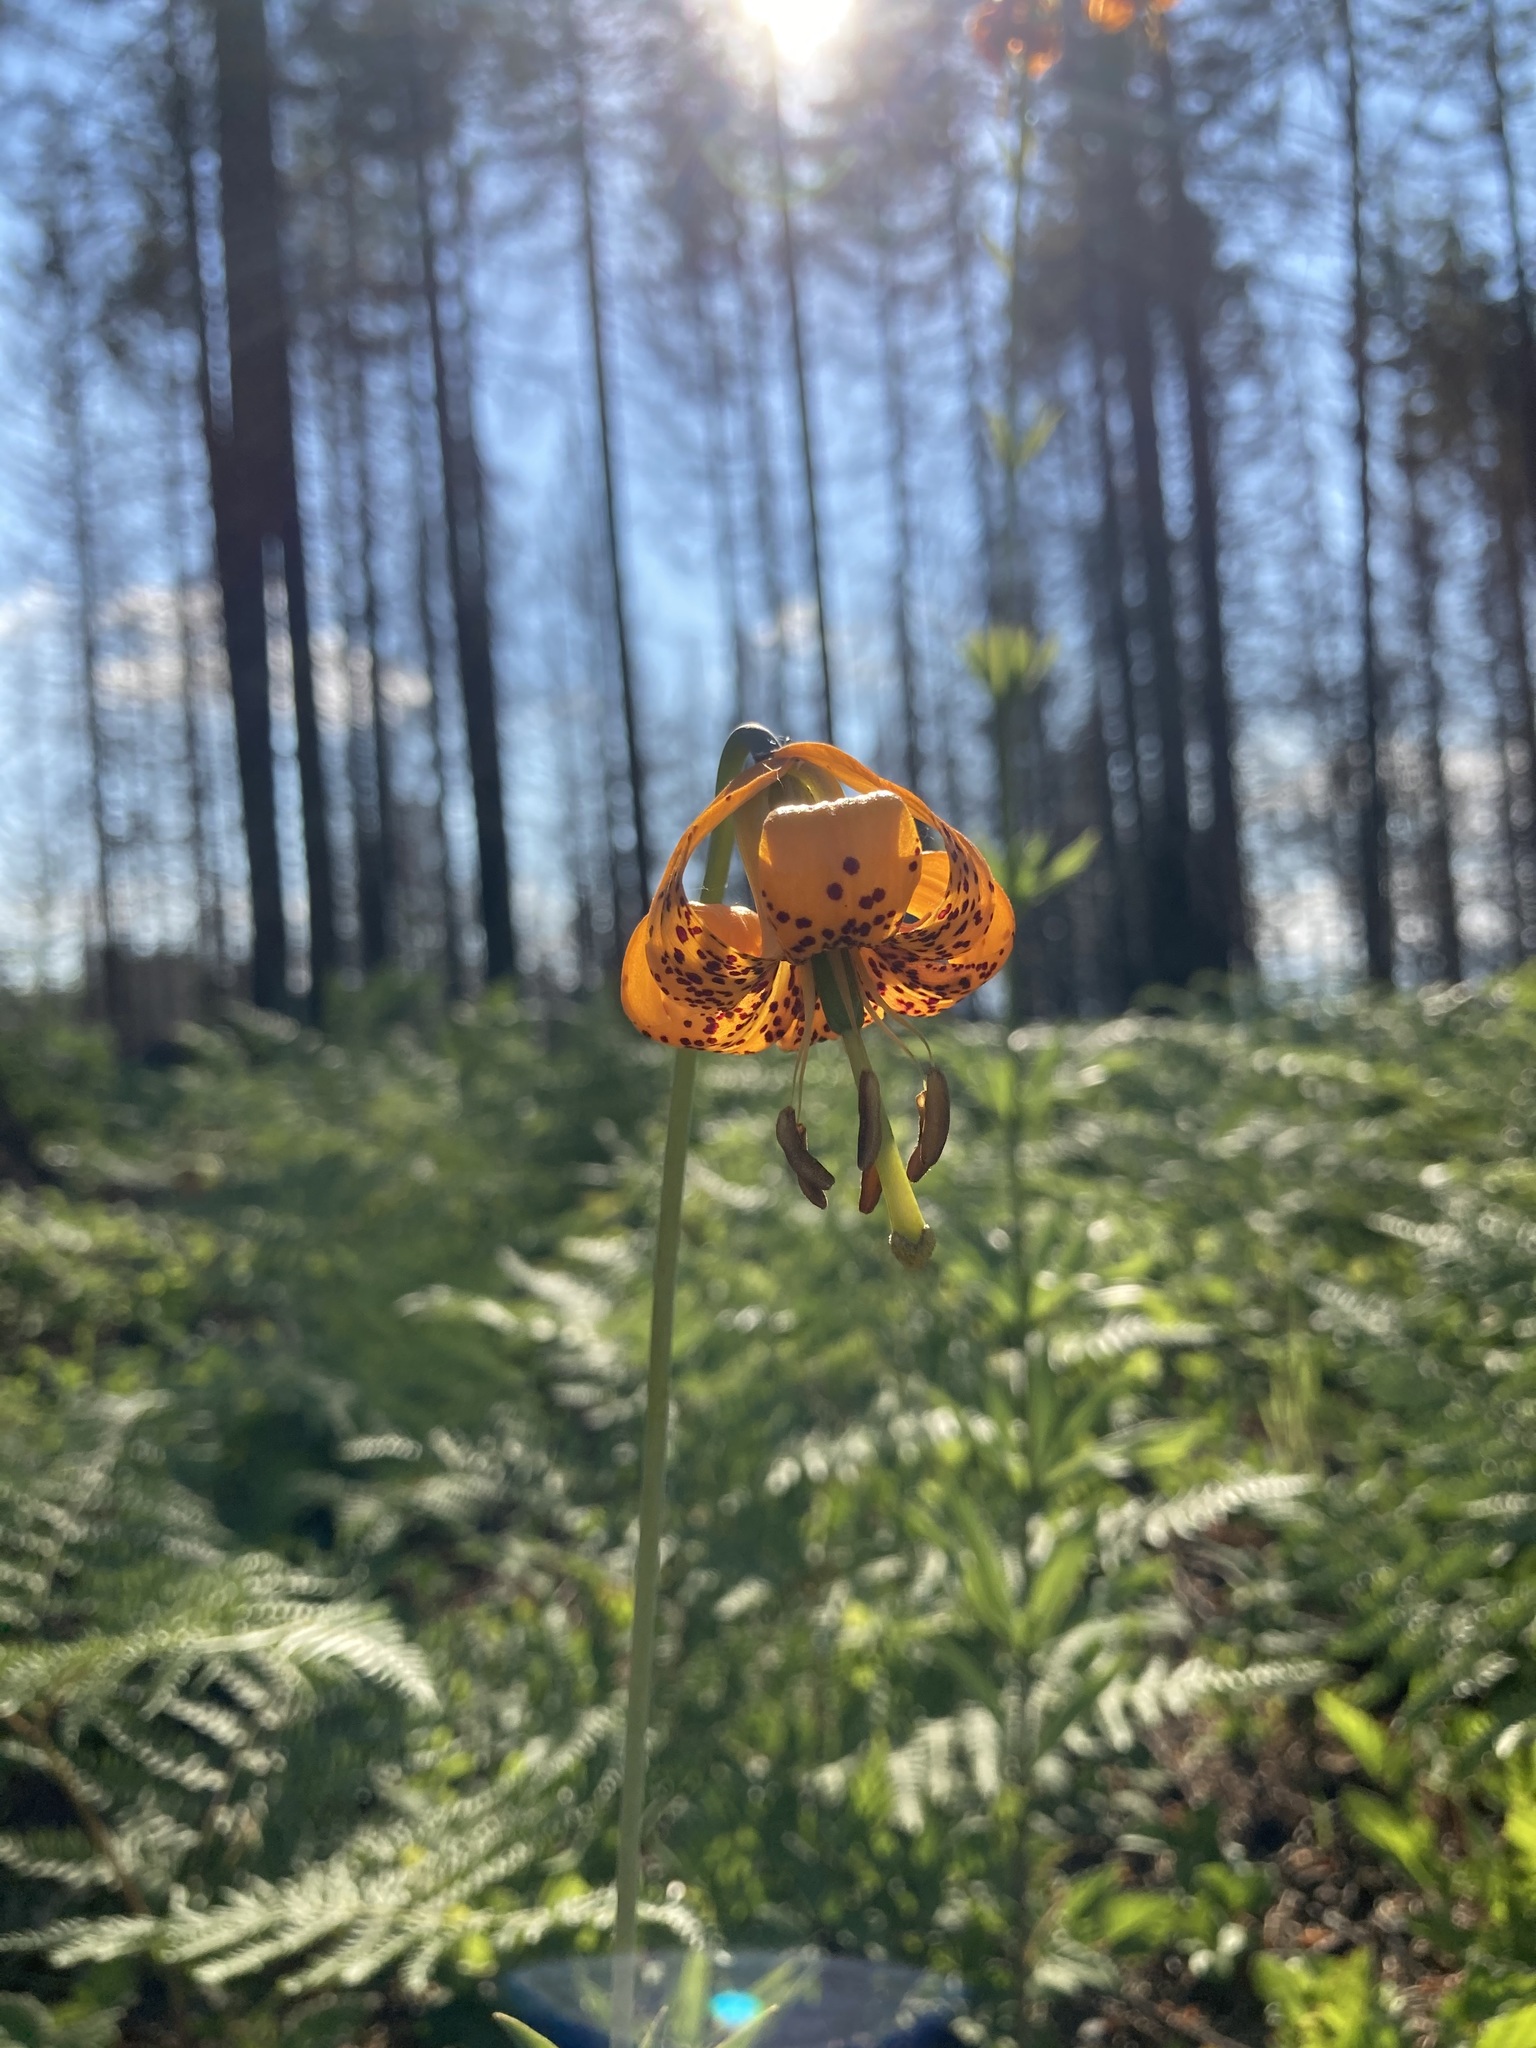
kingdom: Plantae
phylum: Tracheophyta
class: Liliopsida
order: Liliales
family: Liliaceae
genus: Lilium
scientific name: Lilium columbianum
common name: Columbia lily
